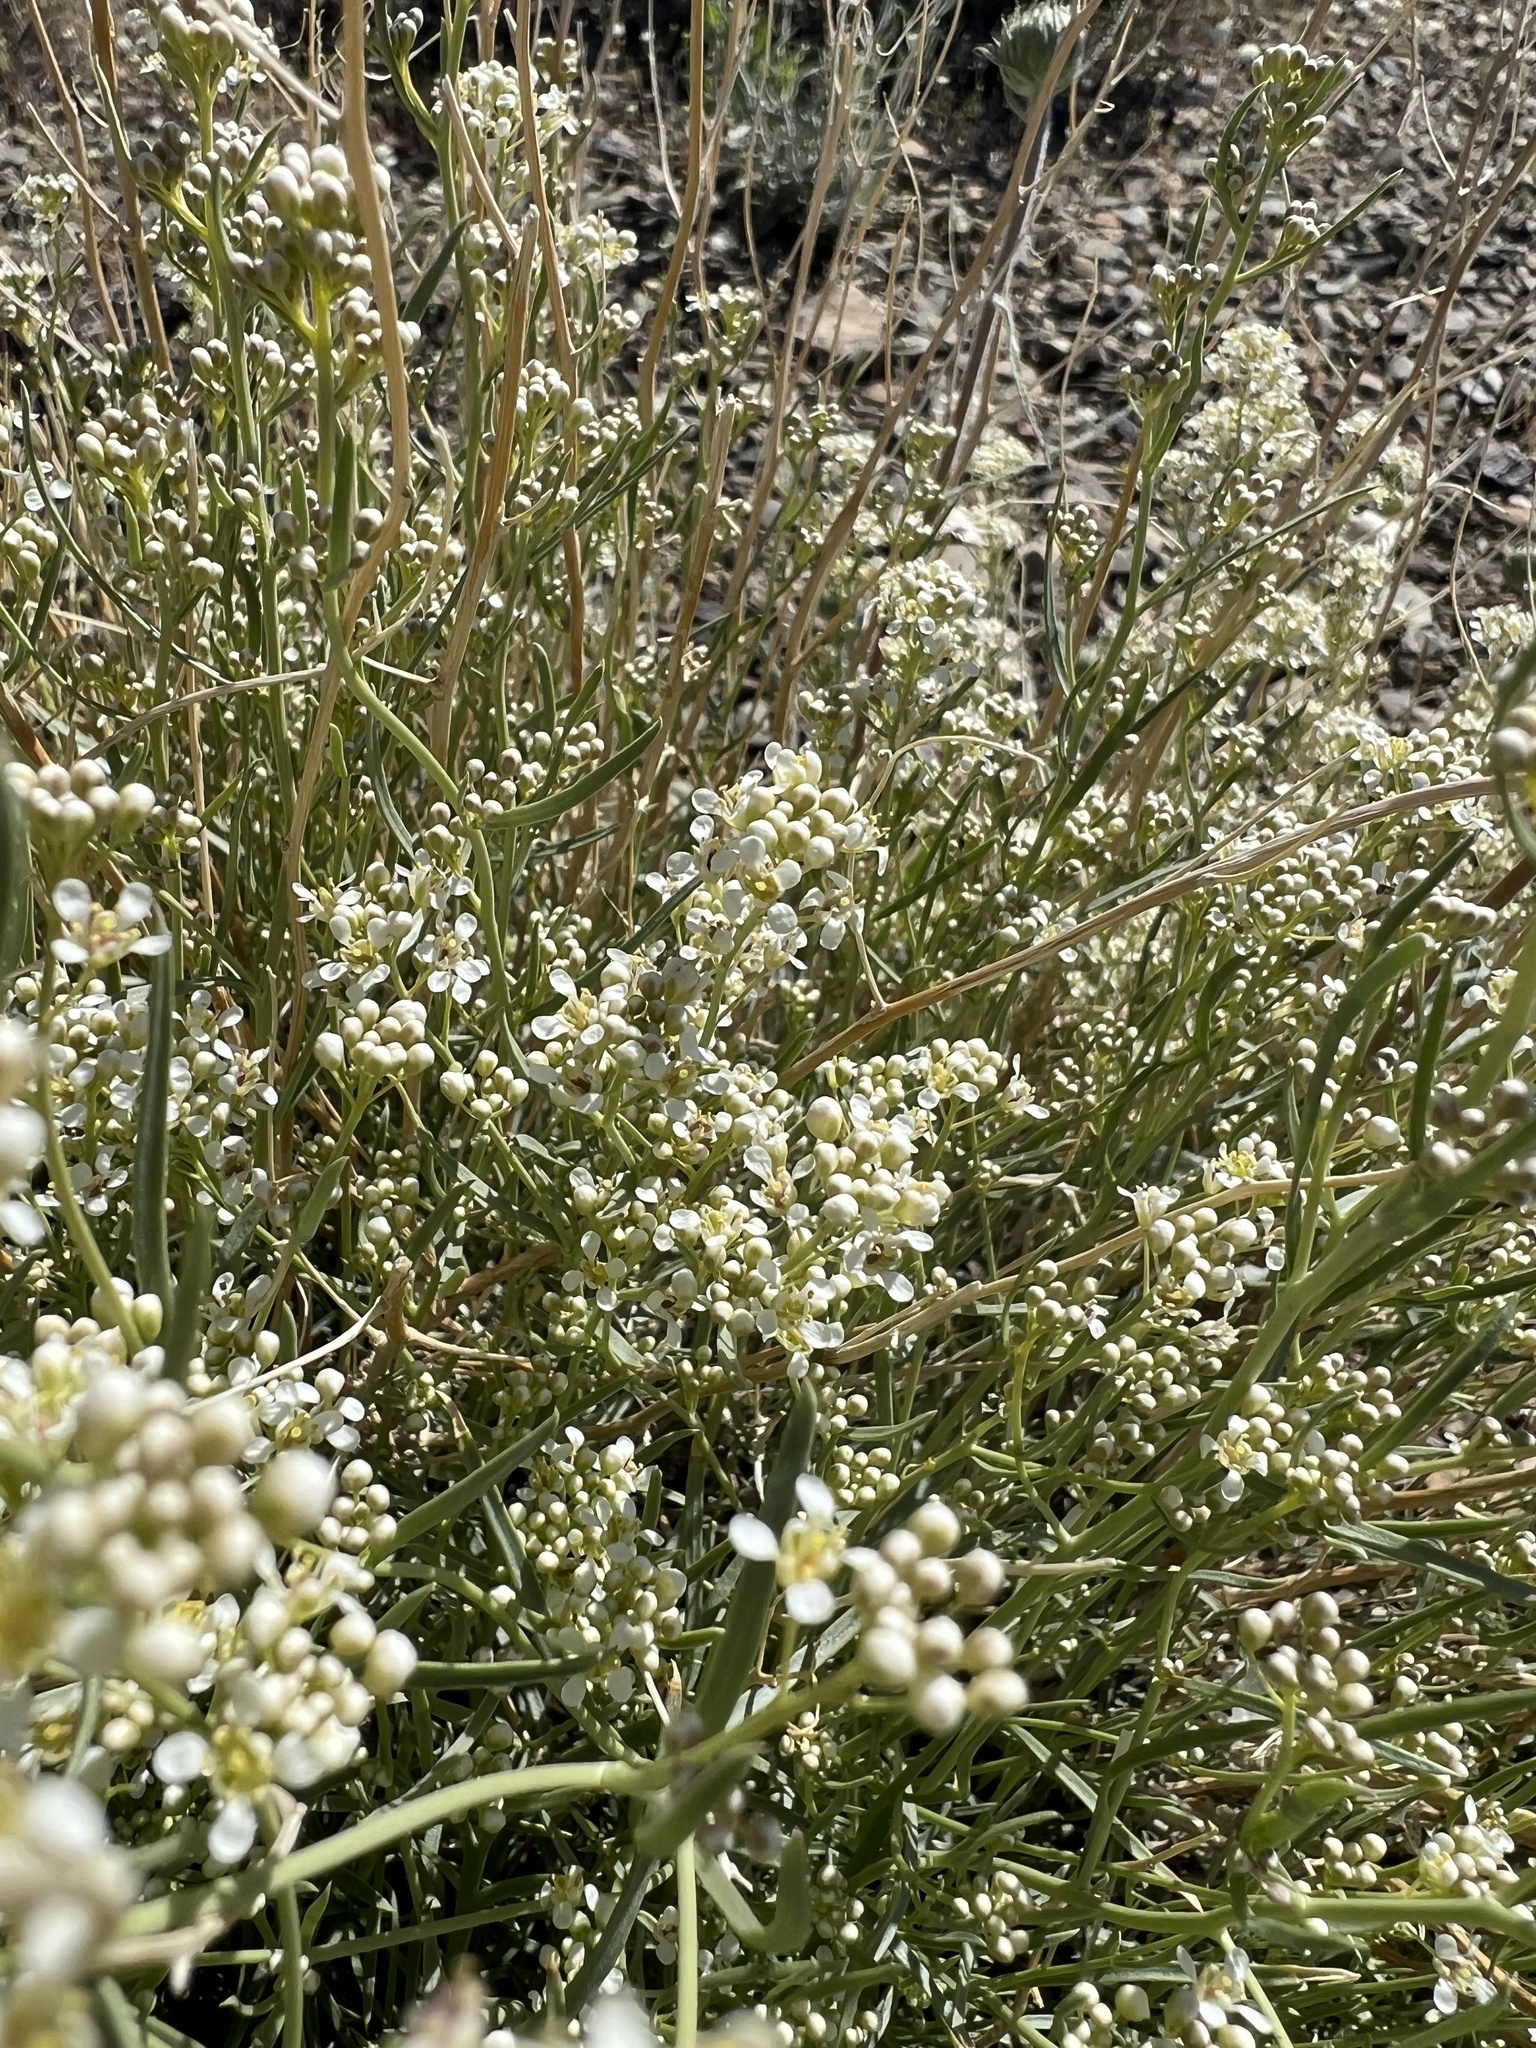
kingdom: Plantae
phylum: Tracheophyta
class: Magnoliopsida
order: Brassicales
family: Brassicaceae
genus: Lepidium
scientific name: Lepidium fremontii
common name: Fremont's pepperwort
